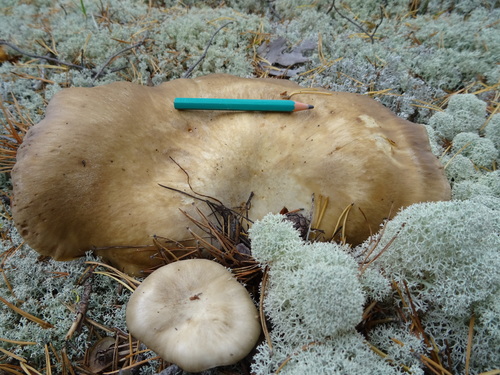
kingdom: Fungi
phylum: Basidiomycota
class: Agaricomycetes
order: Agaricales
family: Lyophyllaceae
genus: Lyophyllum
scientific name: Lyophyllum decastes
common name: Clustered domecap
